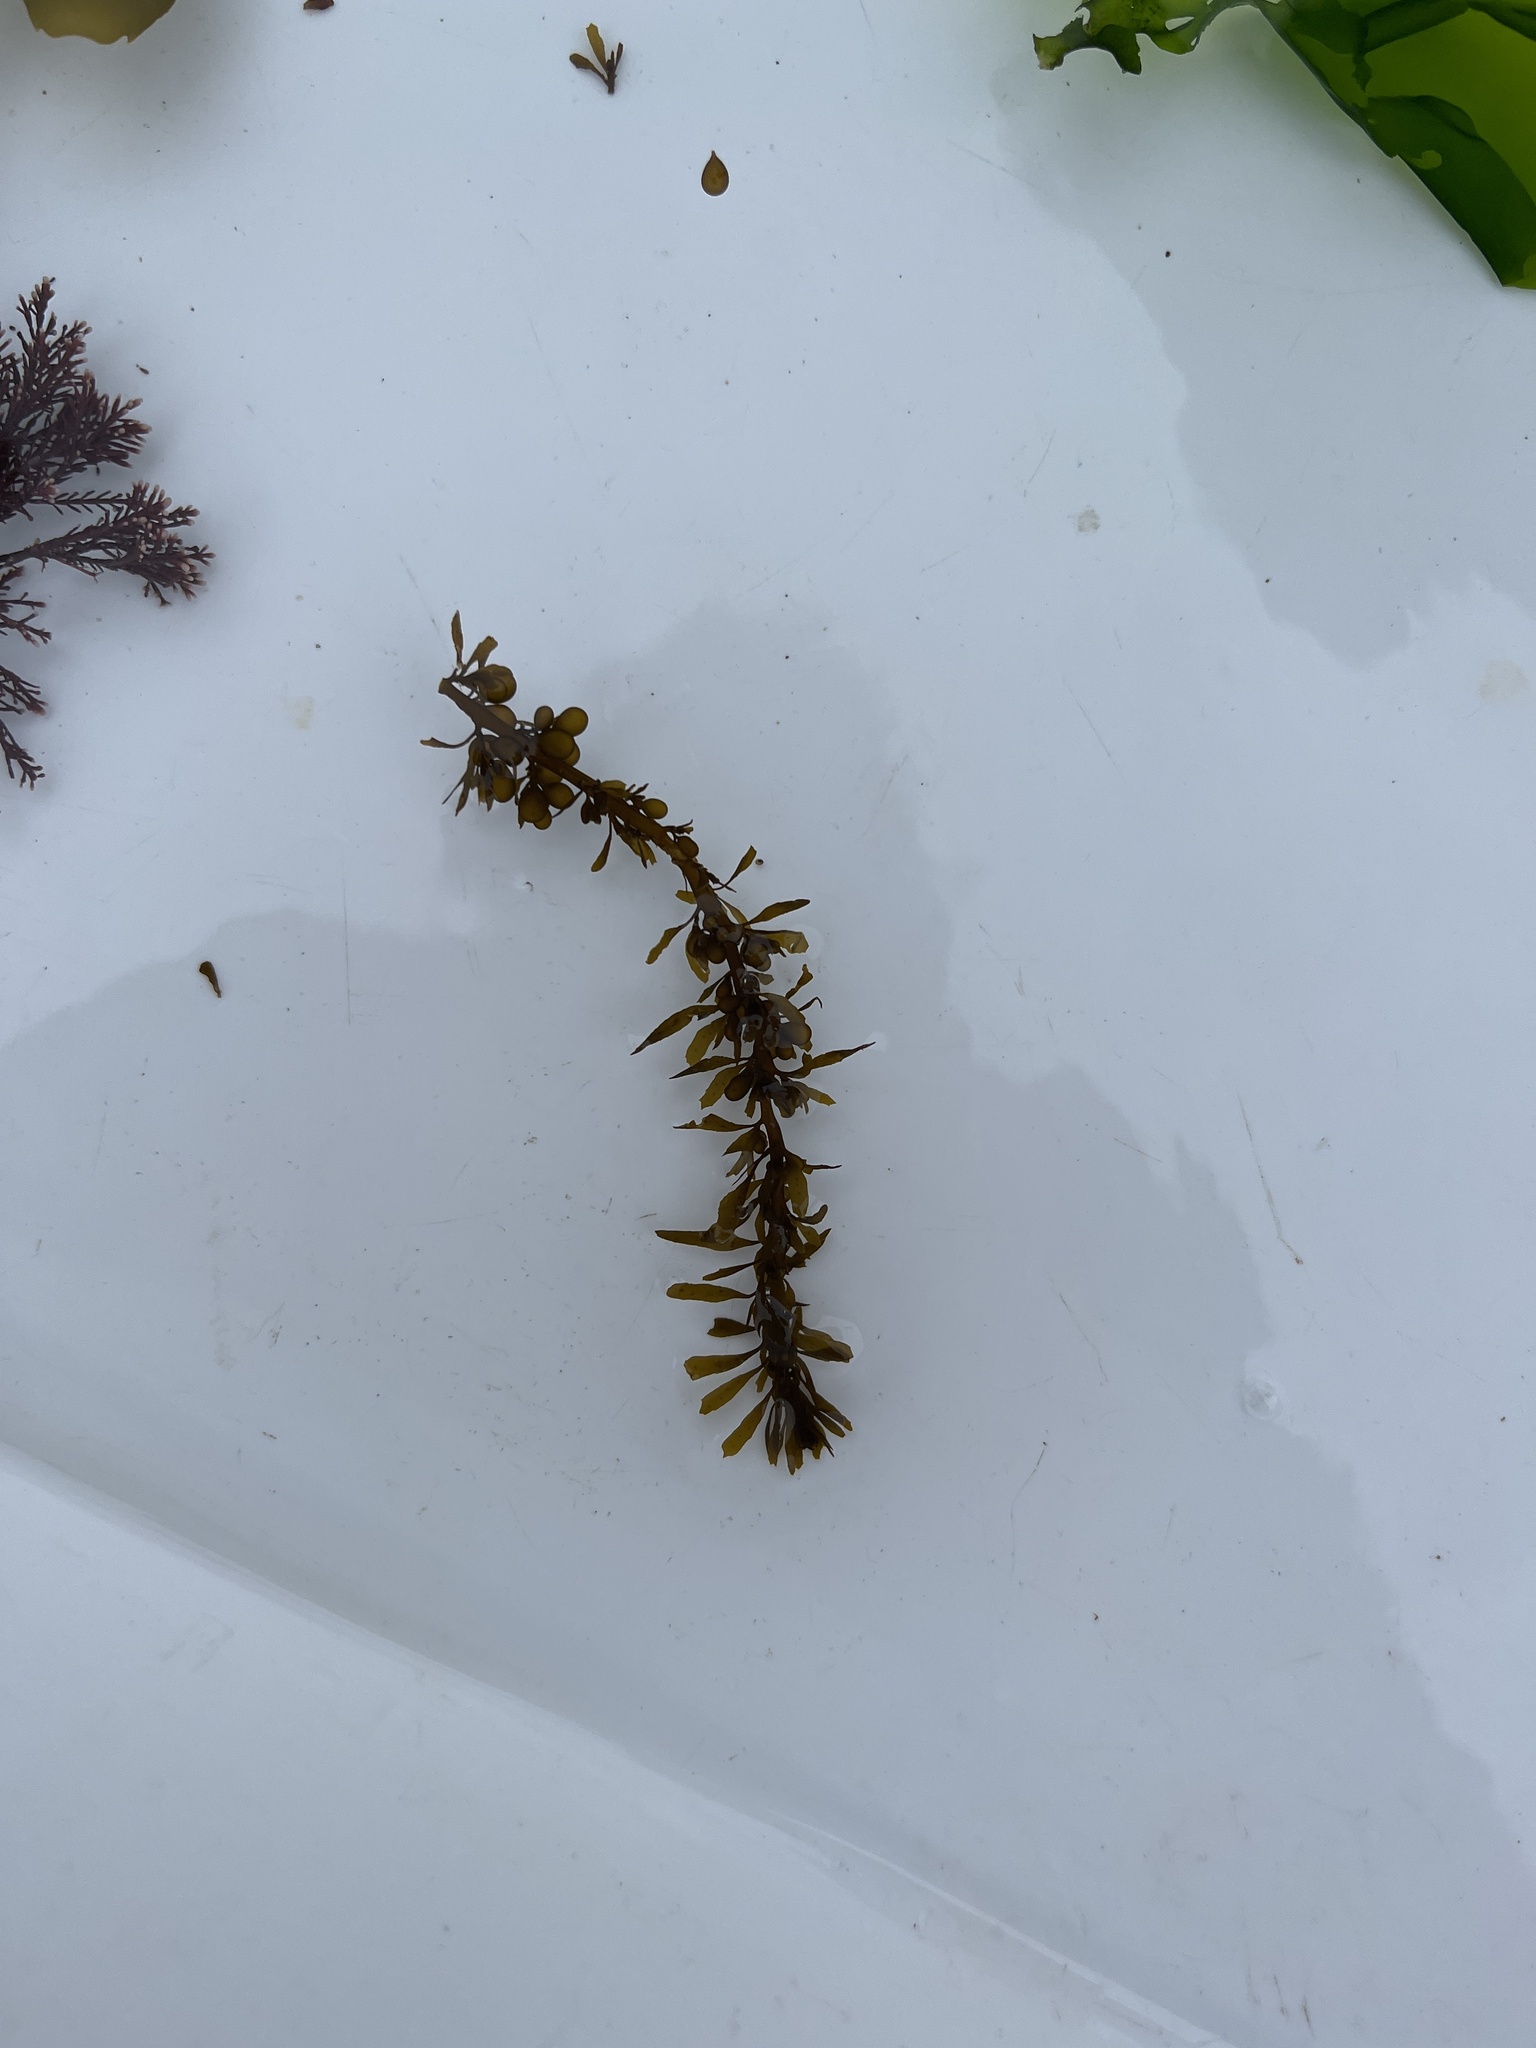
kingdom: Chromista
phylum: Ochrophyta
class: Phaeophyceae
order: Fucales
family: Sargassaceae
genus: Sargassum
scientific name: Sargassum muticum
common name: Japweed
